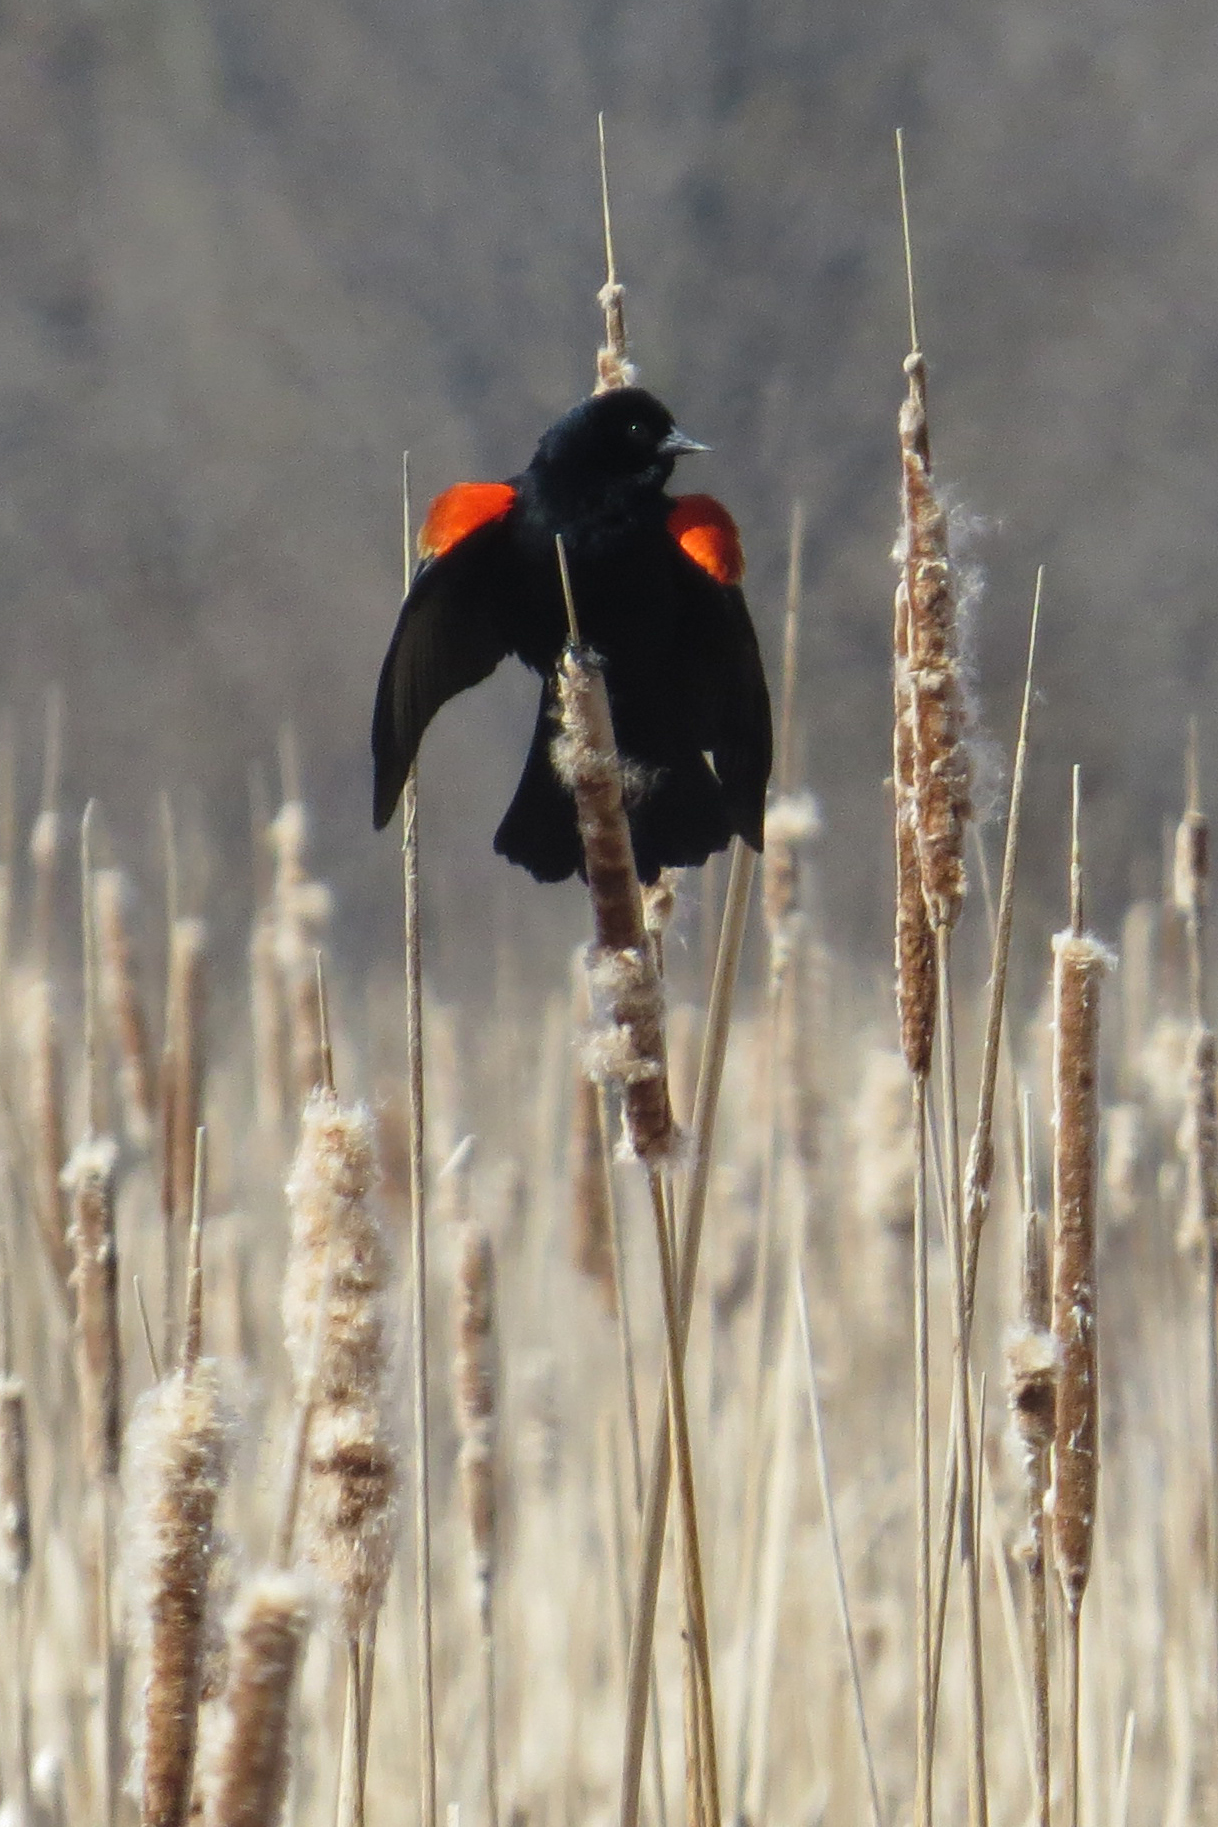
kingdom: Animalia
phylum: Chordata
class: Aves
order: Passeriformes
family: Icteridae
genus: Agelaius
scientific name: Agelaius phoeniceus
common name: Red-winged blackbird
